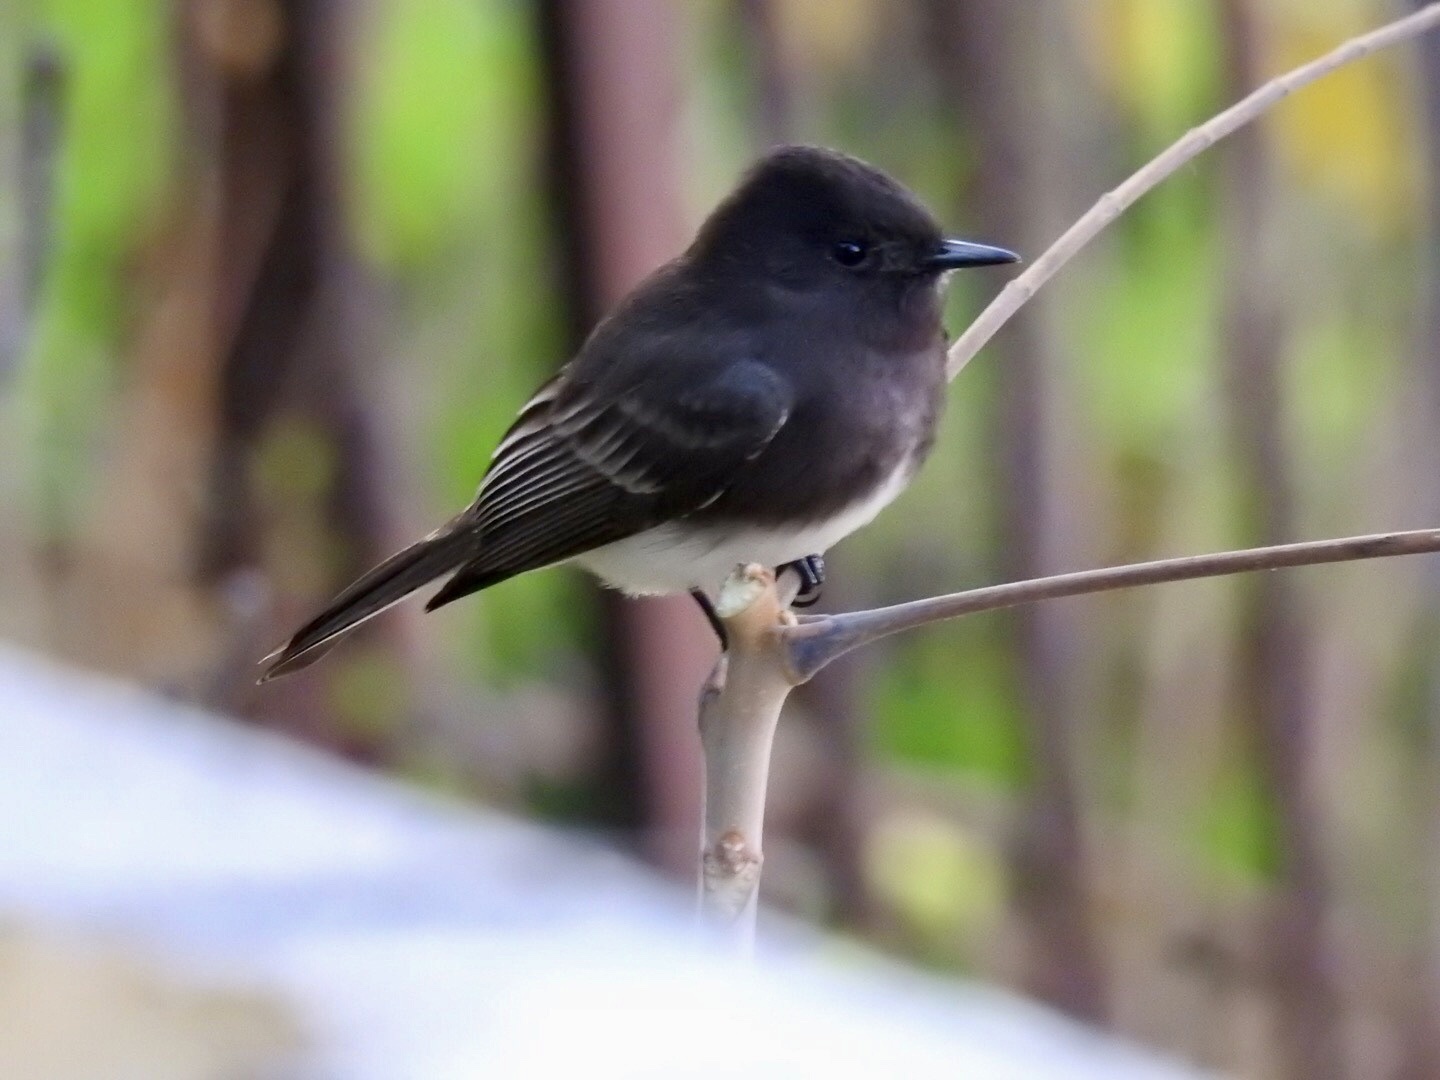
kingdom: Animalia
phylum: Chordata
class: Aves
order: Passeriformes
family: Tyrannidae
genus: Sayornis
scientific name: Sayornis nigricans
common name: Black phoebe
